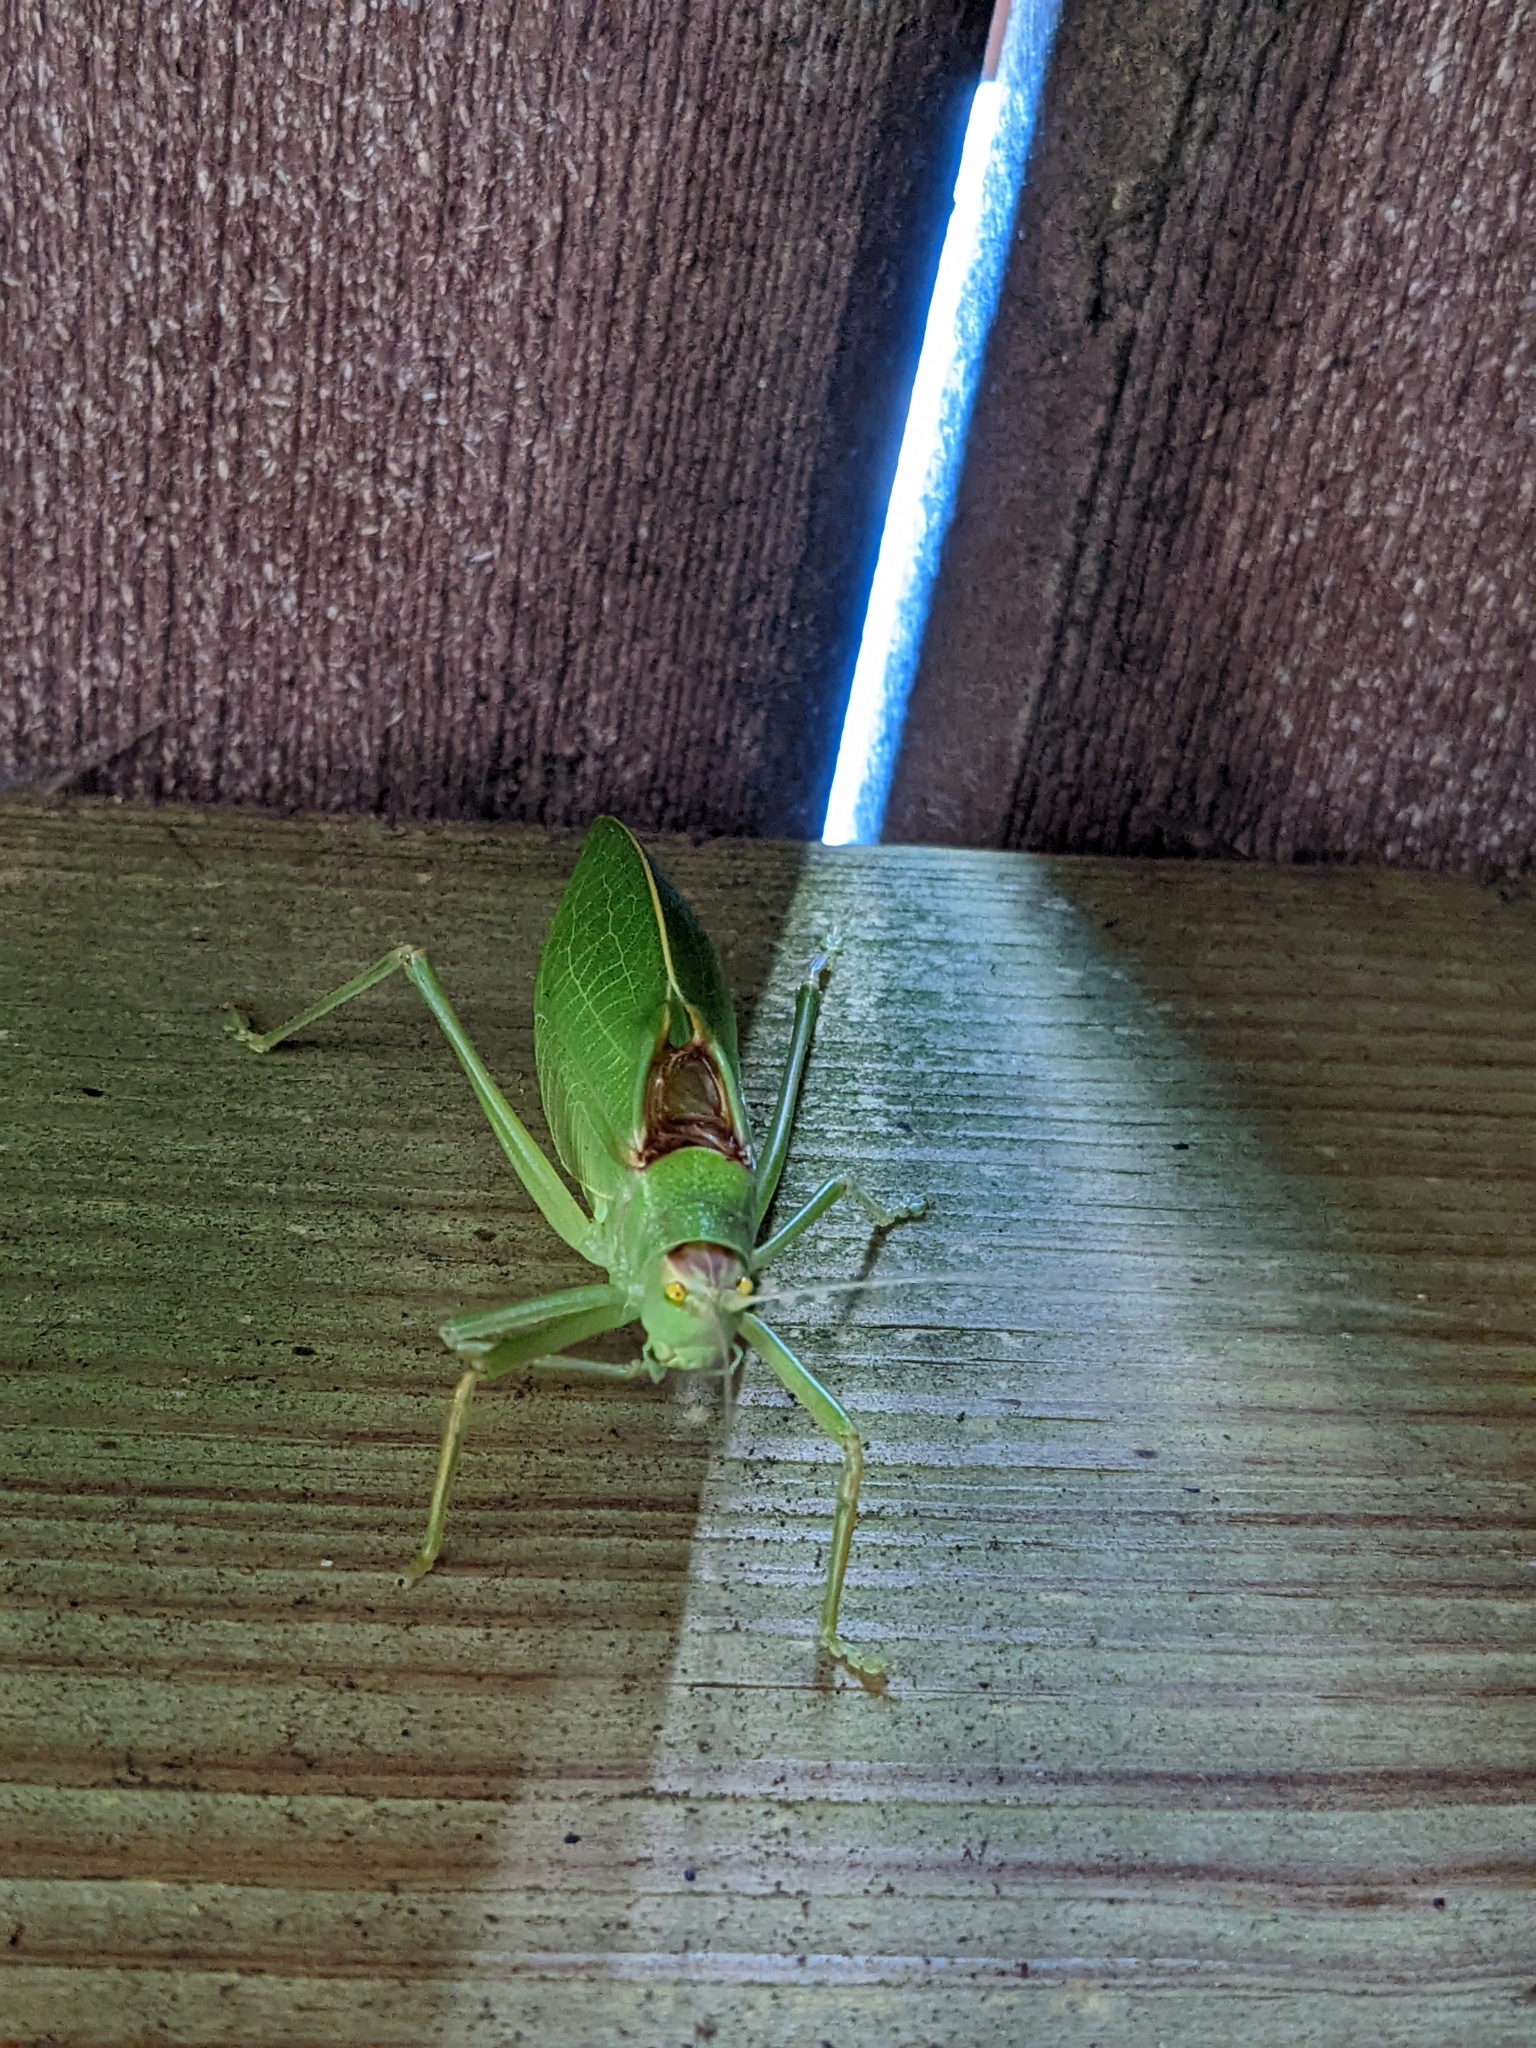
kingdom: Animalia
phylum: Arthropoda
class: Insecta
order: Orthoptera
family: Tettigoniidae
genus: Pterophylla
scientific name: Pterophylla camellifolia
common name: Common true katydid
